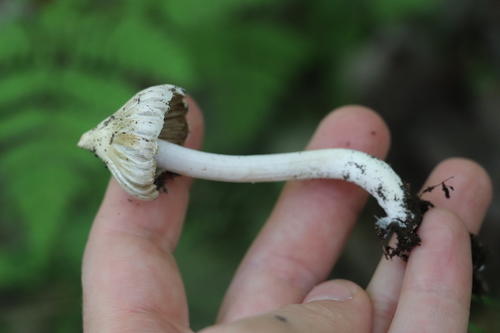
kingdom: Fungi
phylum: Basidiomycota
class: Agaricomycetes
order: Agaricales
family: Inocybaceae
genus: Inosperma
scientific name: Inosperma cookei
